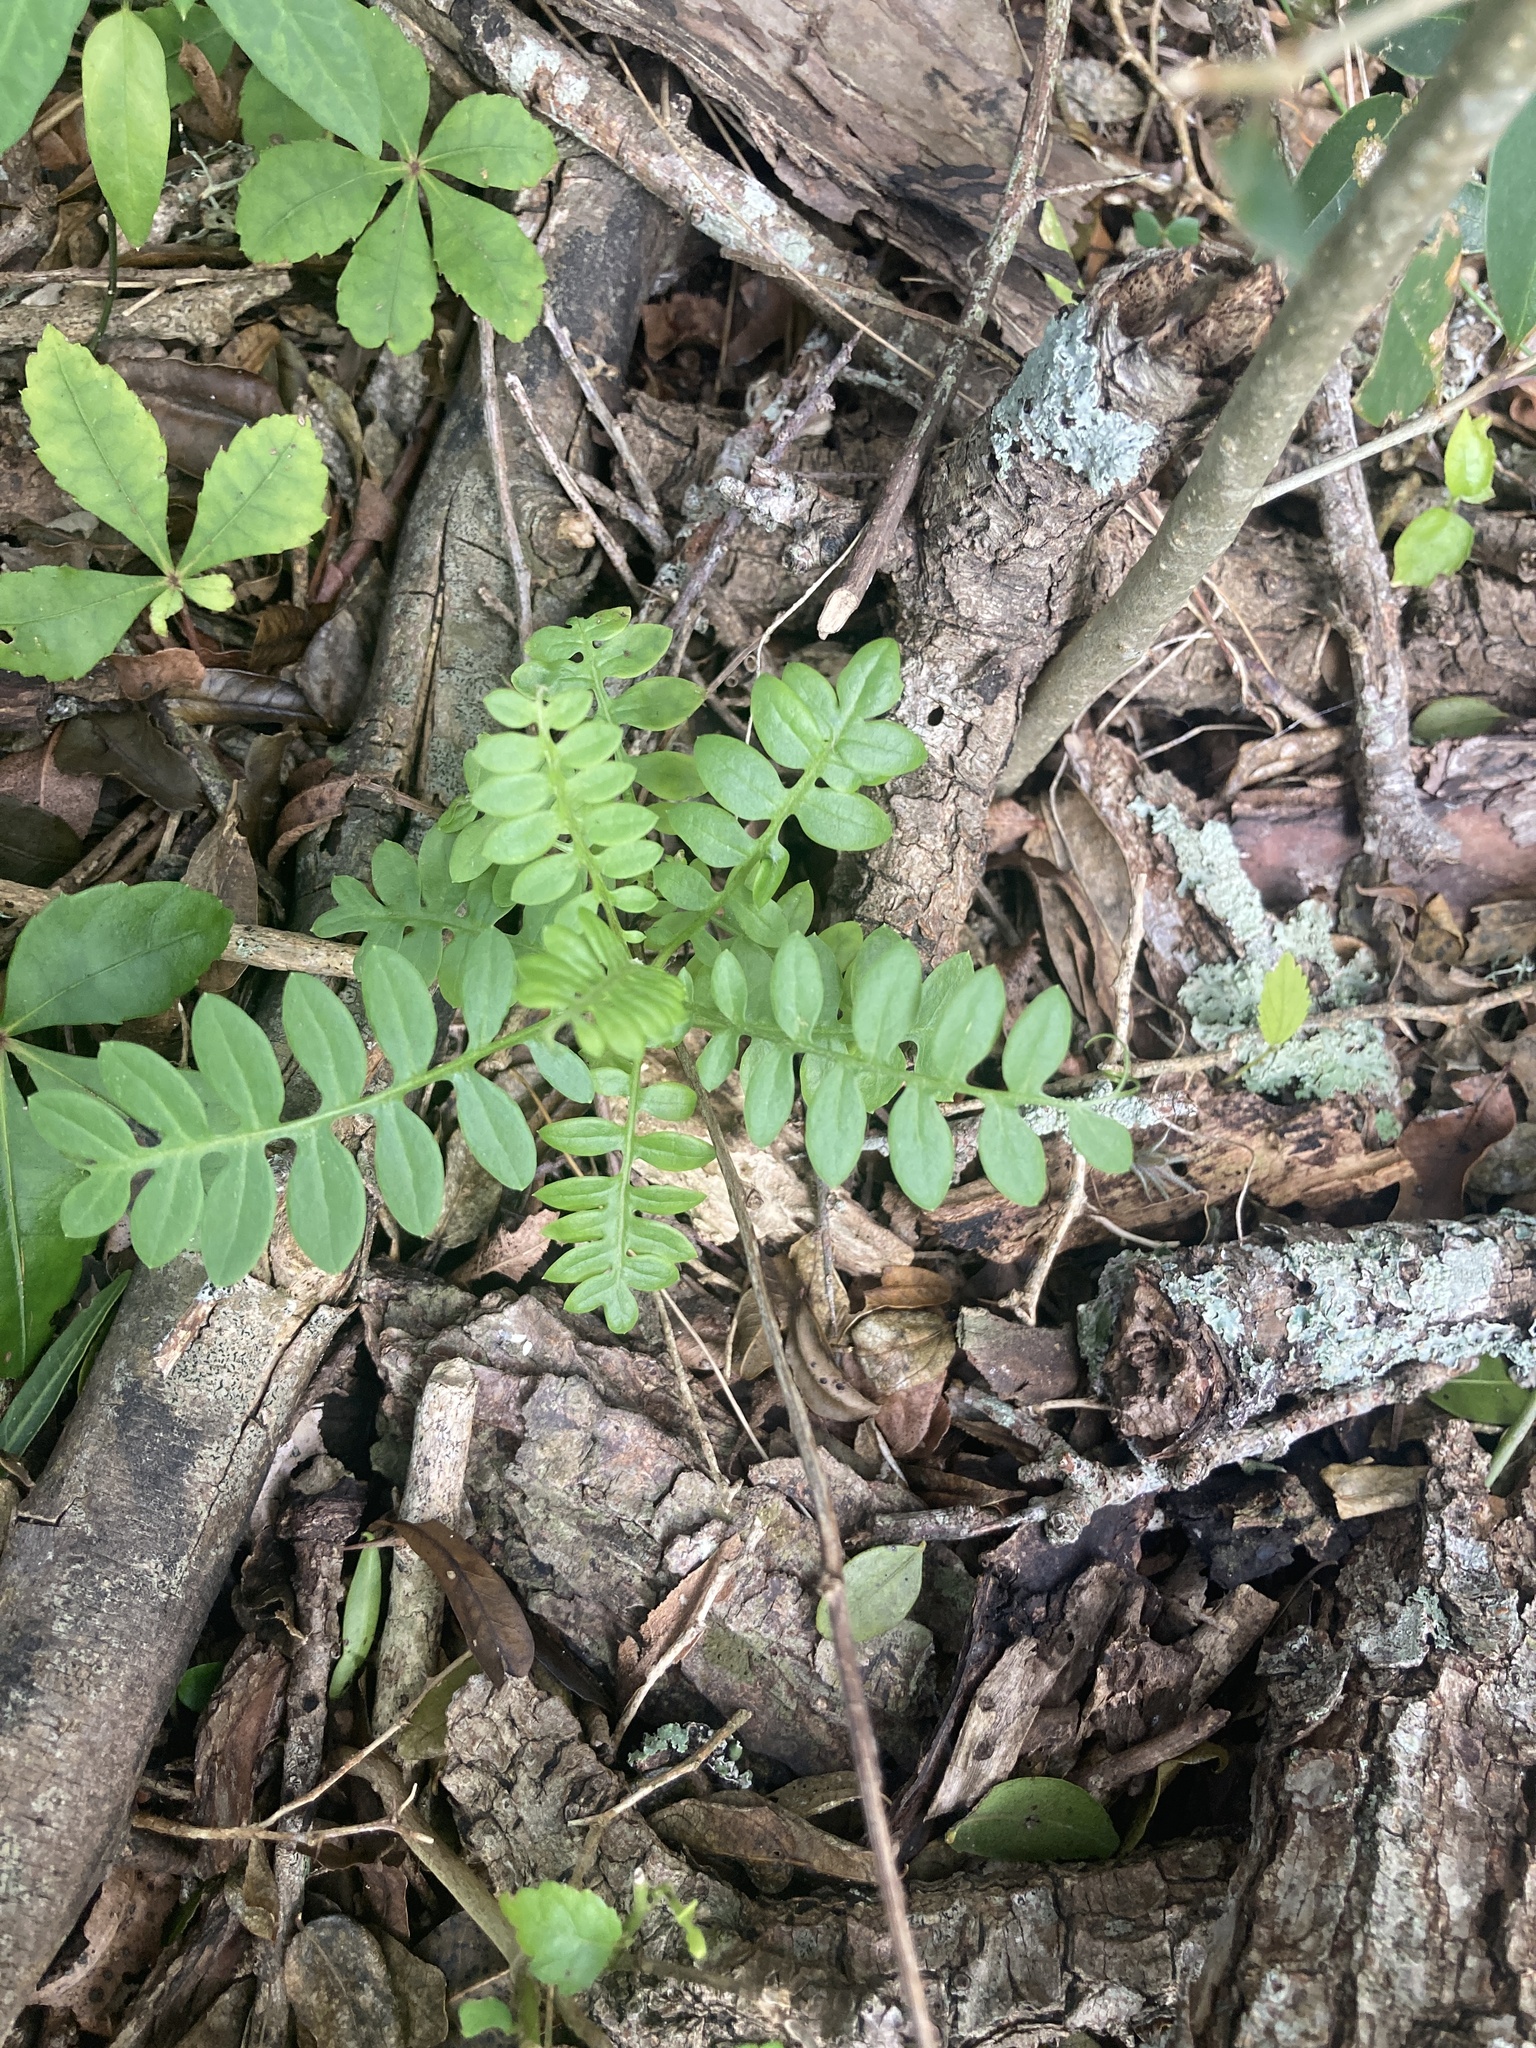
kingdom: Plantae
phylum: Tracheophyta
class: Magnoliopsida
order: Asterales
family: Asteraceae
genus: Mutisia
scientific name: Mutisia coccinea
